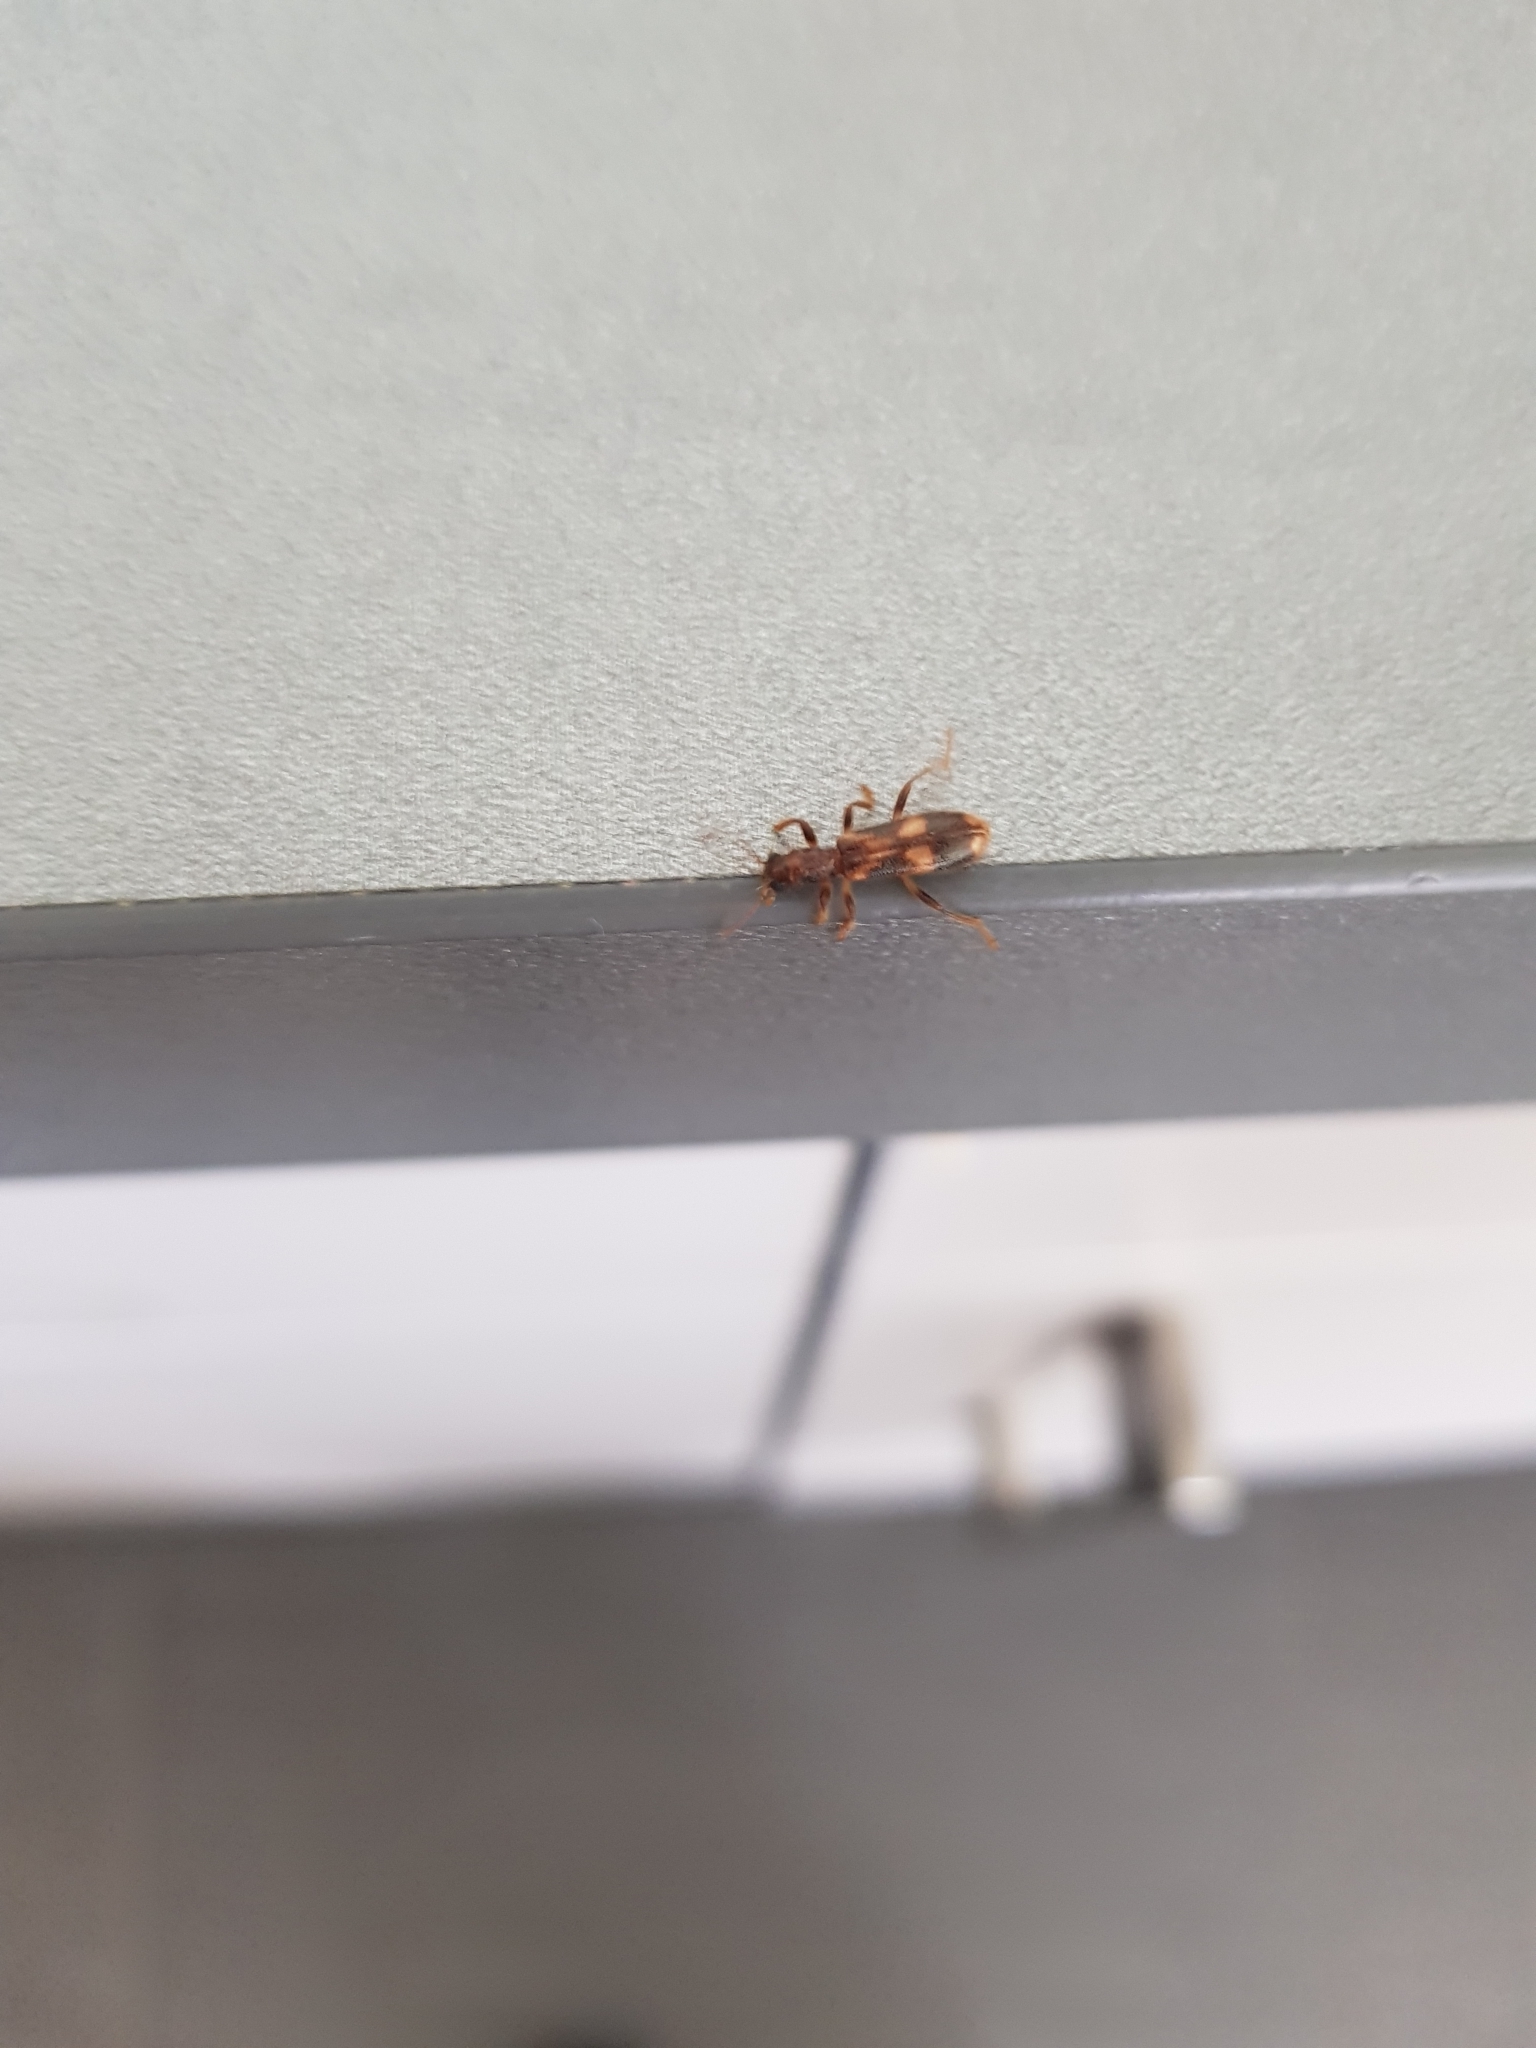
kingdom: Animalia
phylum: Arthropoda
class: Insecta
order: Coleoptera
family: Cleridae
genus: Opilo
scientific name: Opilo mollis
